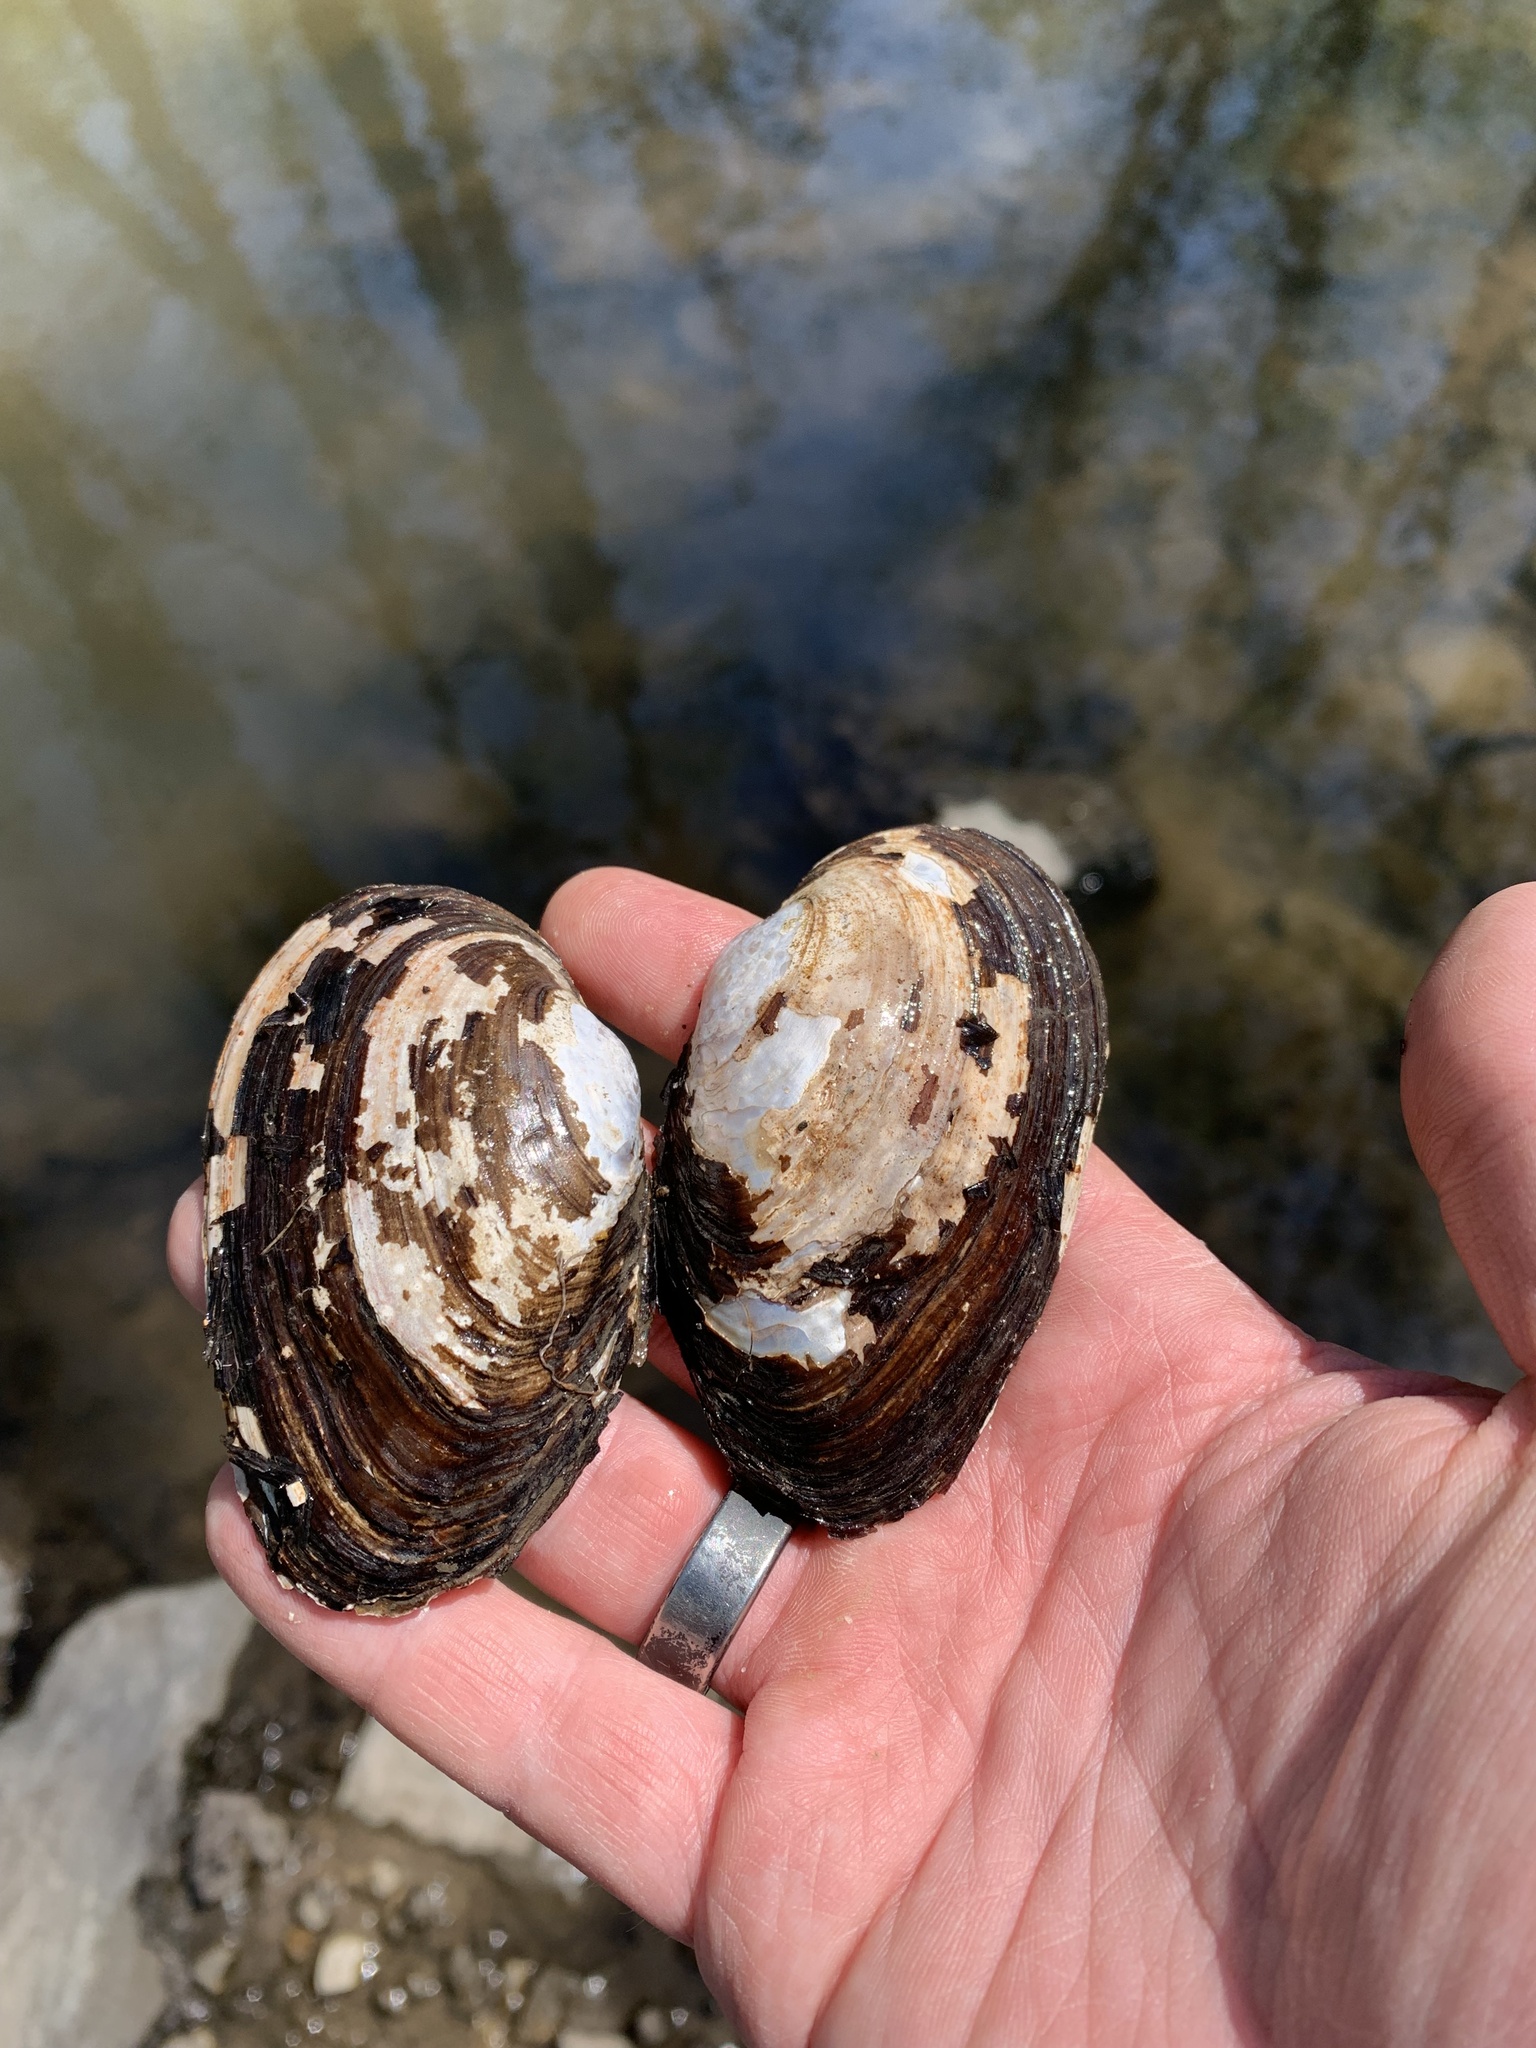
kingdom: Animalia
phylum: Mollusca
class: Bivalvia
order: Unionida
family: Unionidae
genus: Pyganodon
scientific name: Pyganodon grandis
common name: Giant floater
